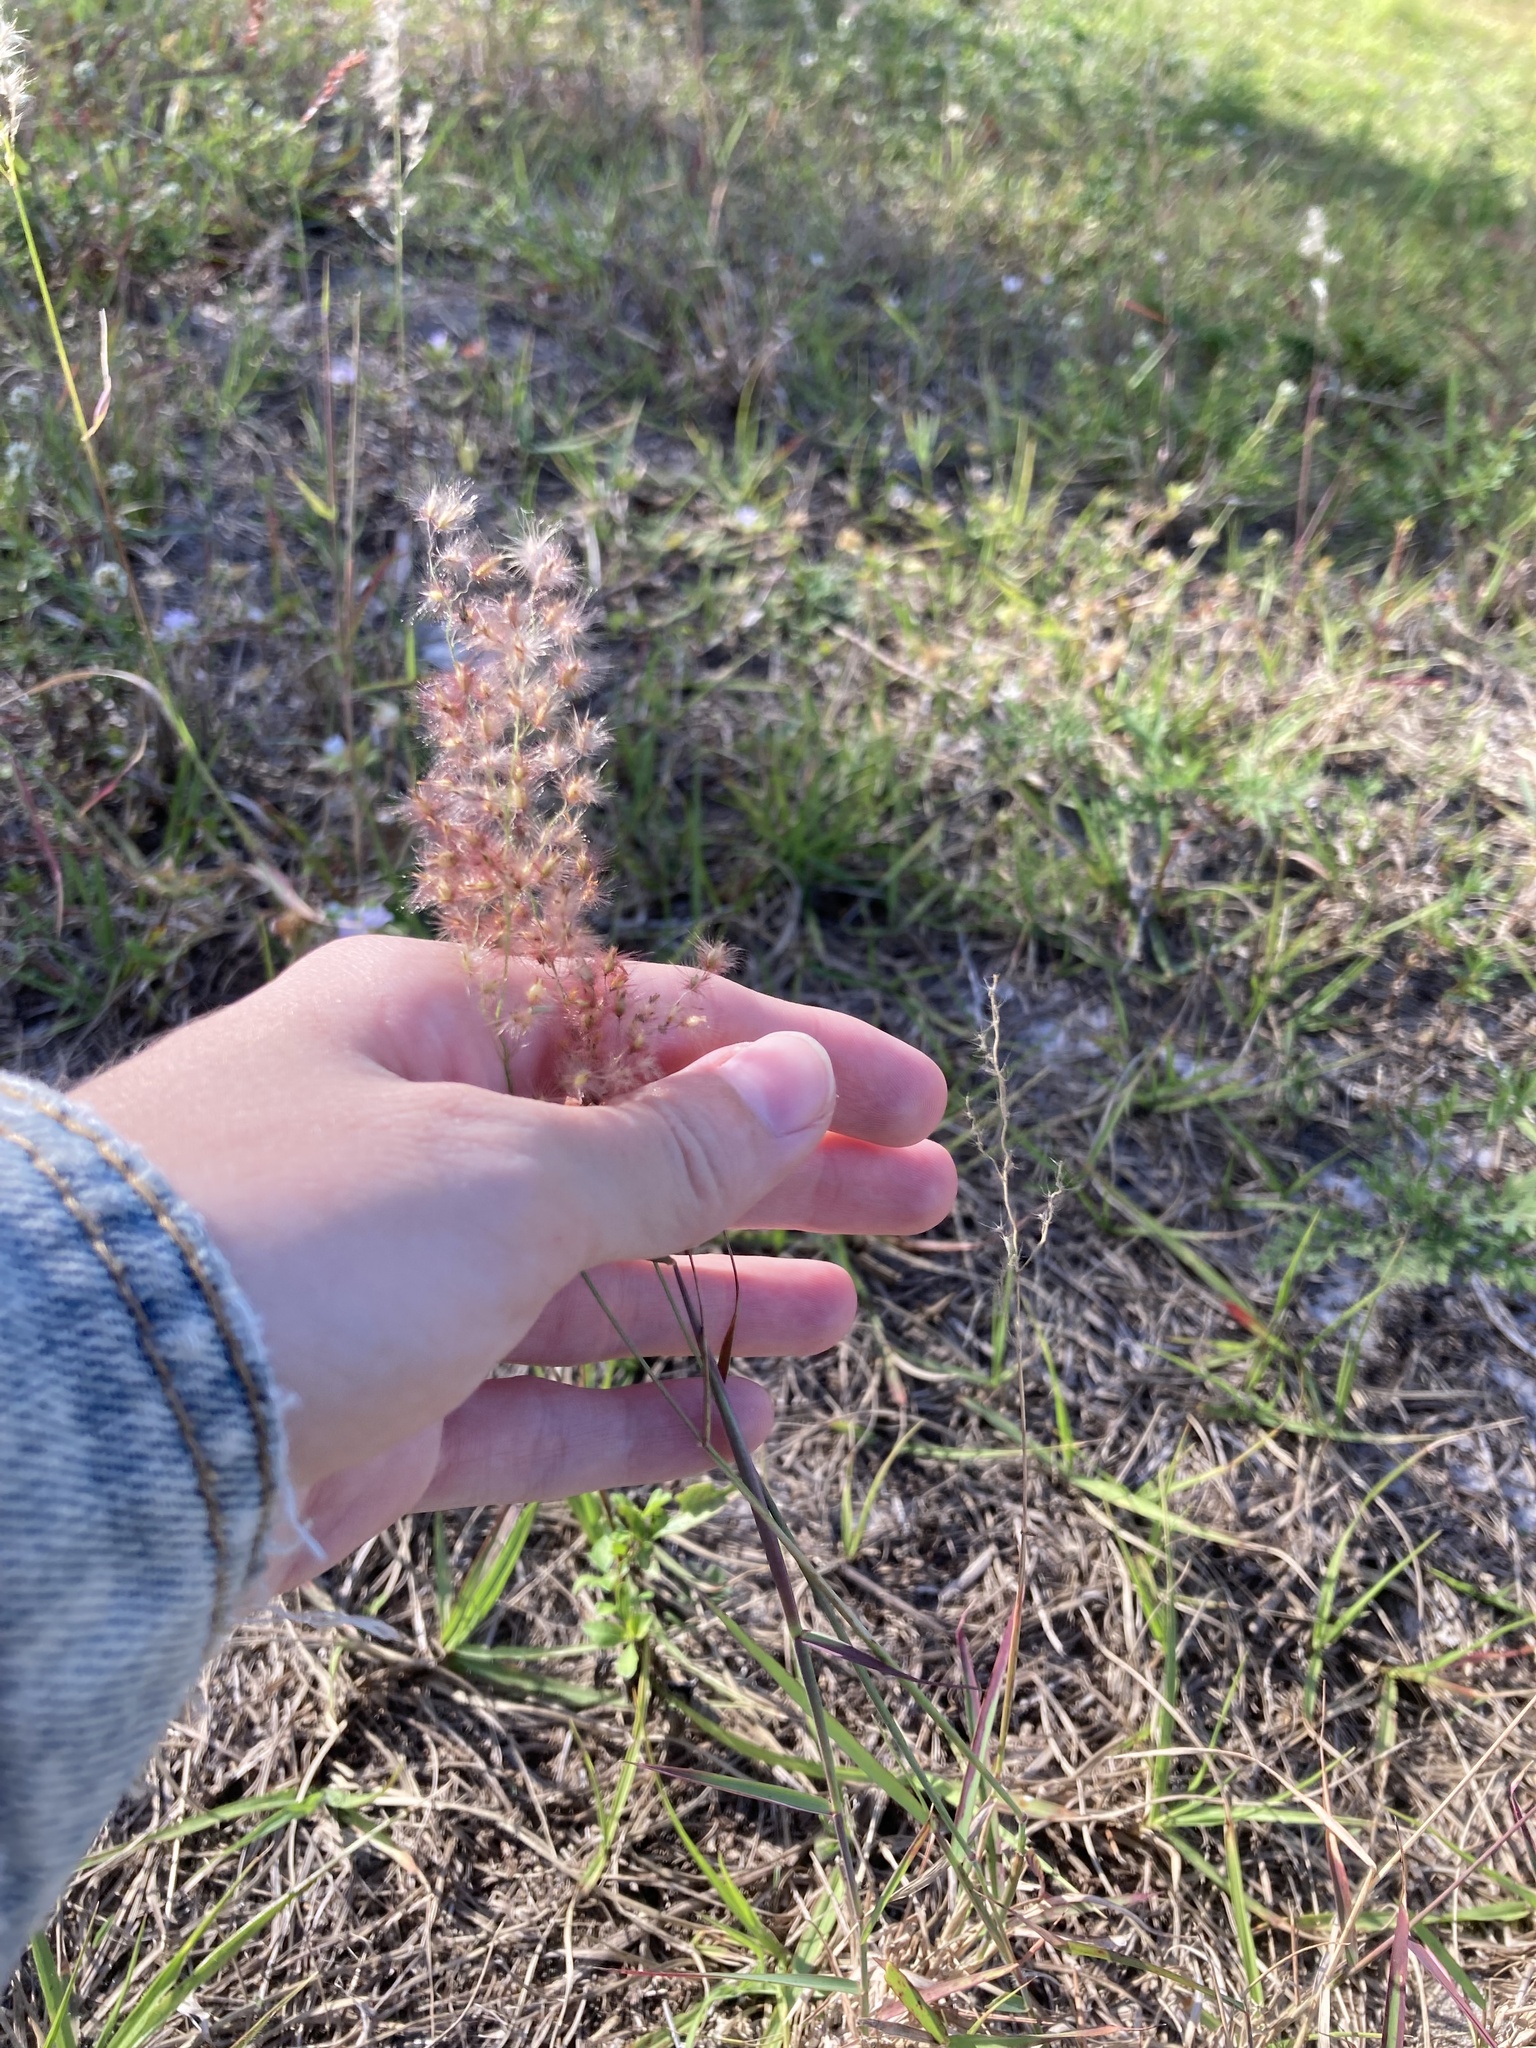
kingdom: Plantae
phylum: Tracheophyta
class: Liliopsida
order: Poales
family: Poaceae
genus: Melinis
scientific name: Melinis repens
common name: Rose natal grass
